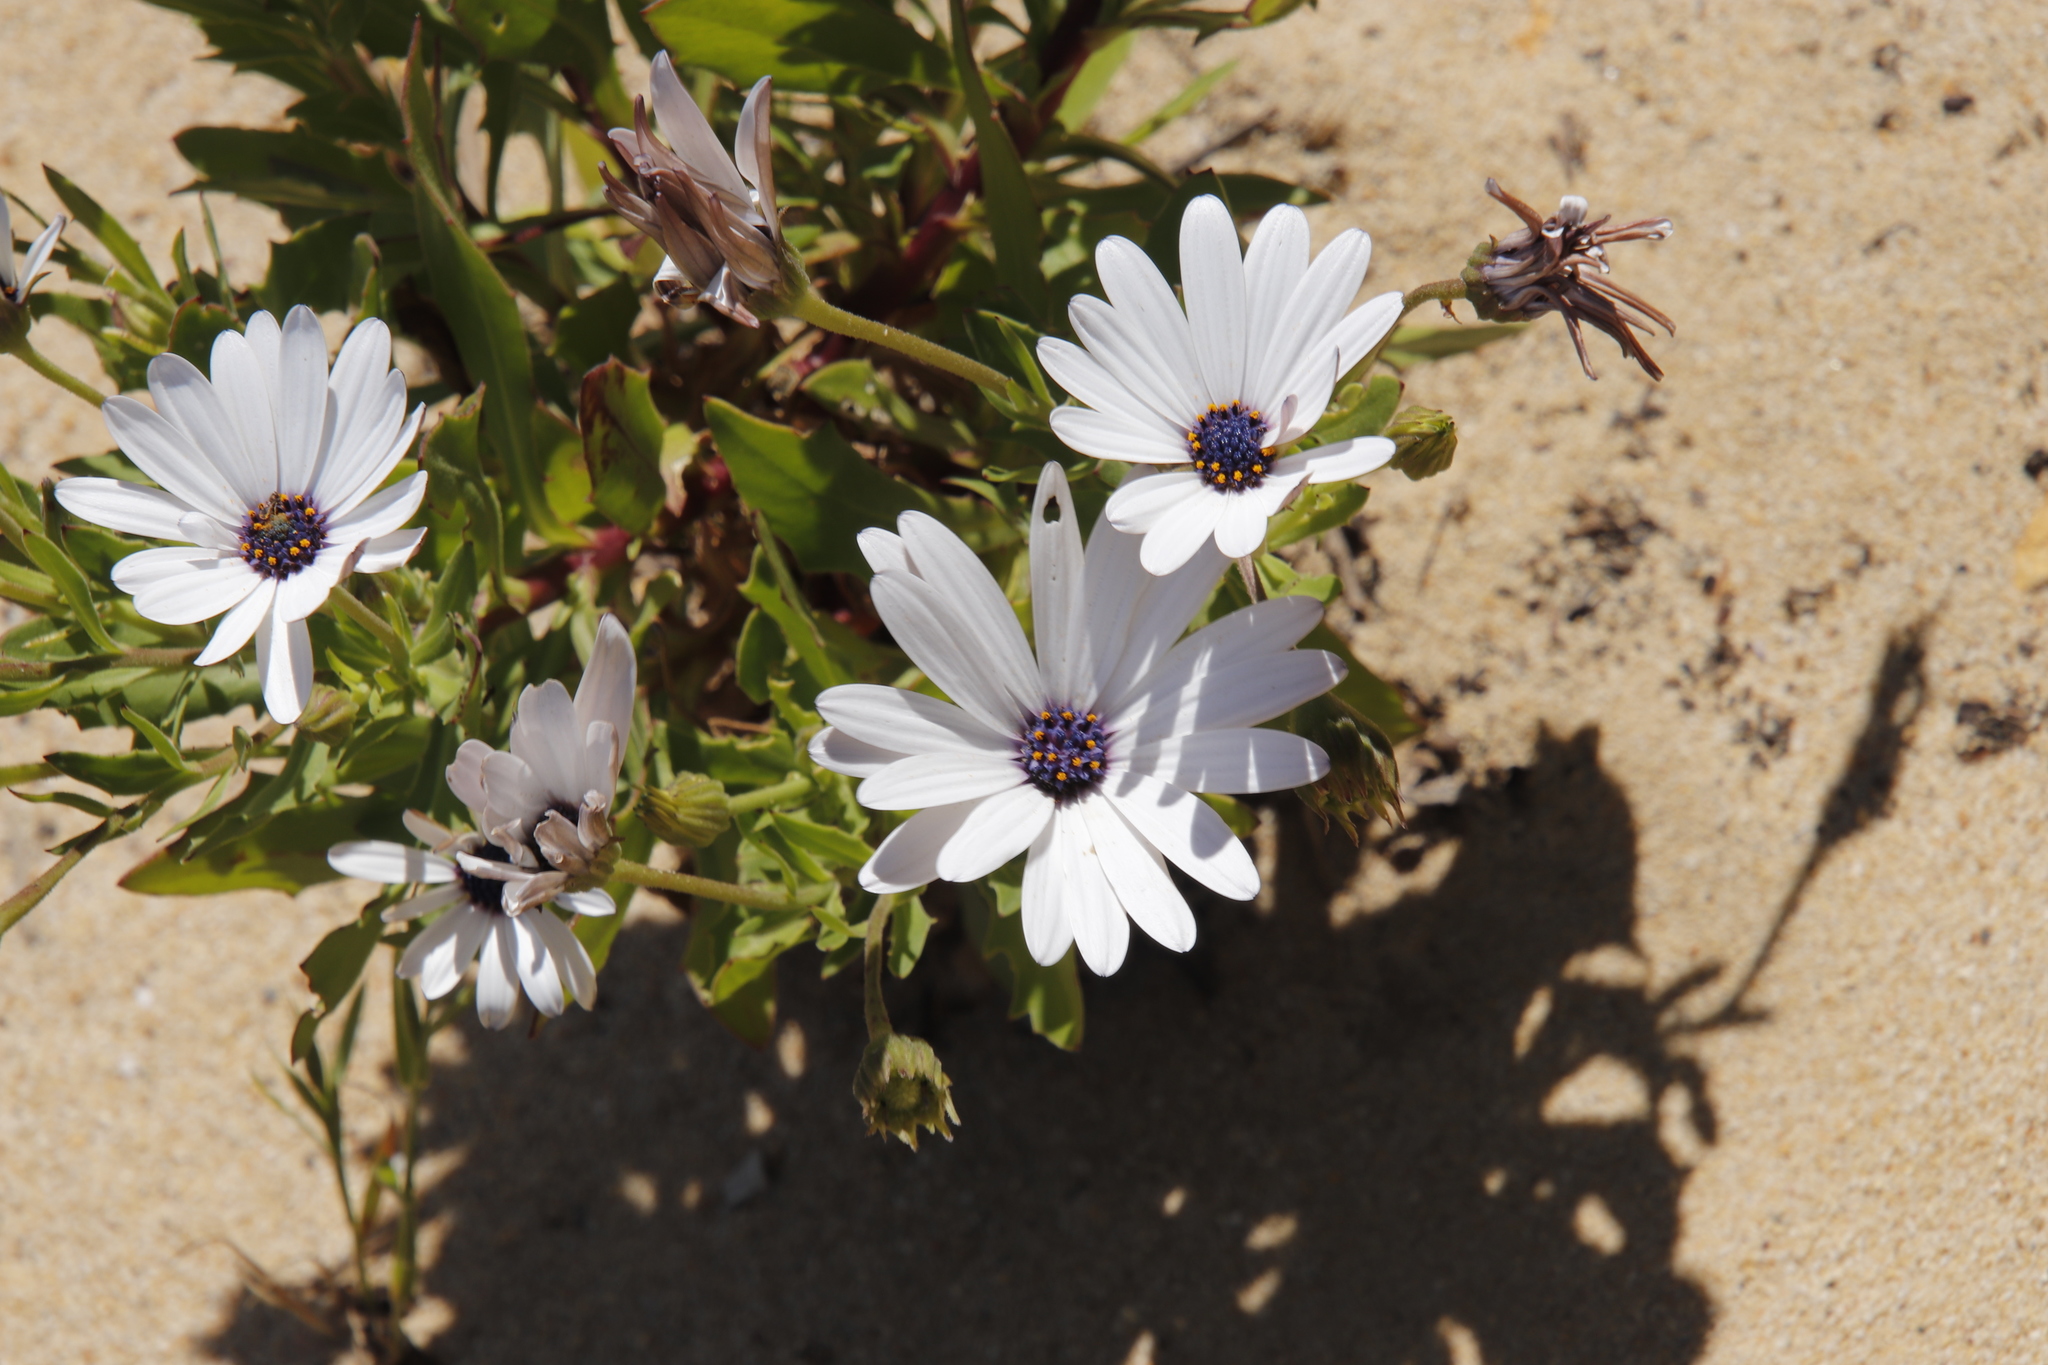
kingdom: Plantae
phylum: Tracheophyta
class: Magnoliopsida
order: Asterales
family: Asteraceae
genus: Dimorphotheca
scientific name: Dimorphotheca ecklonis
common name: Vanstaden's river daisy
